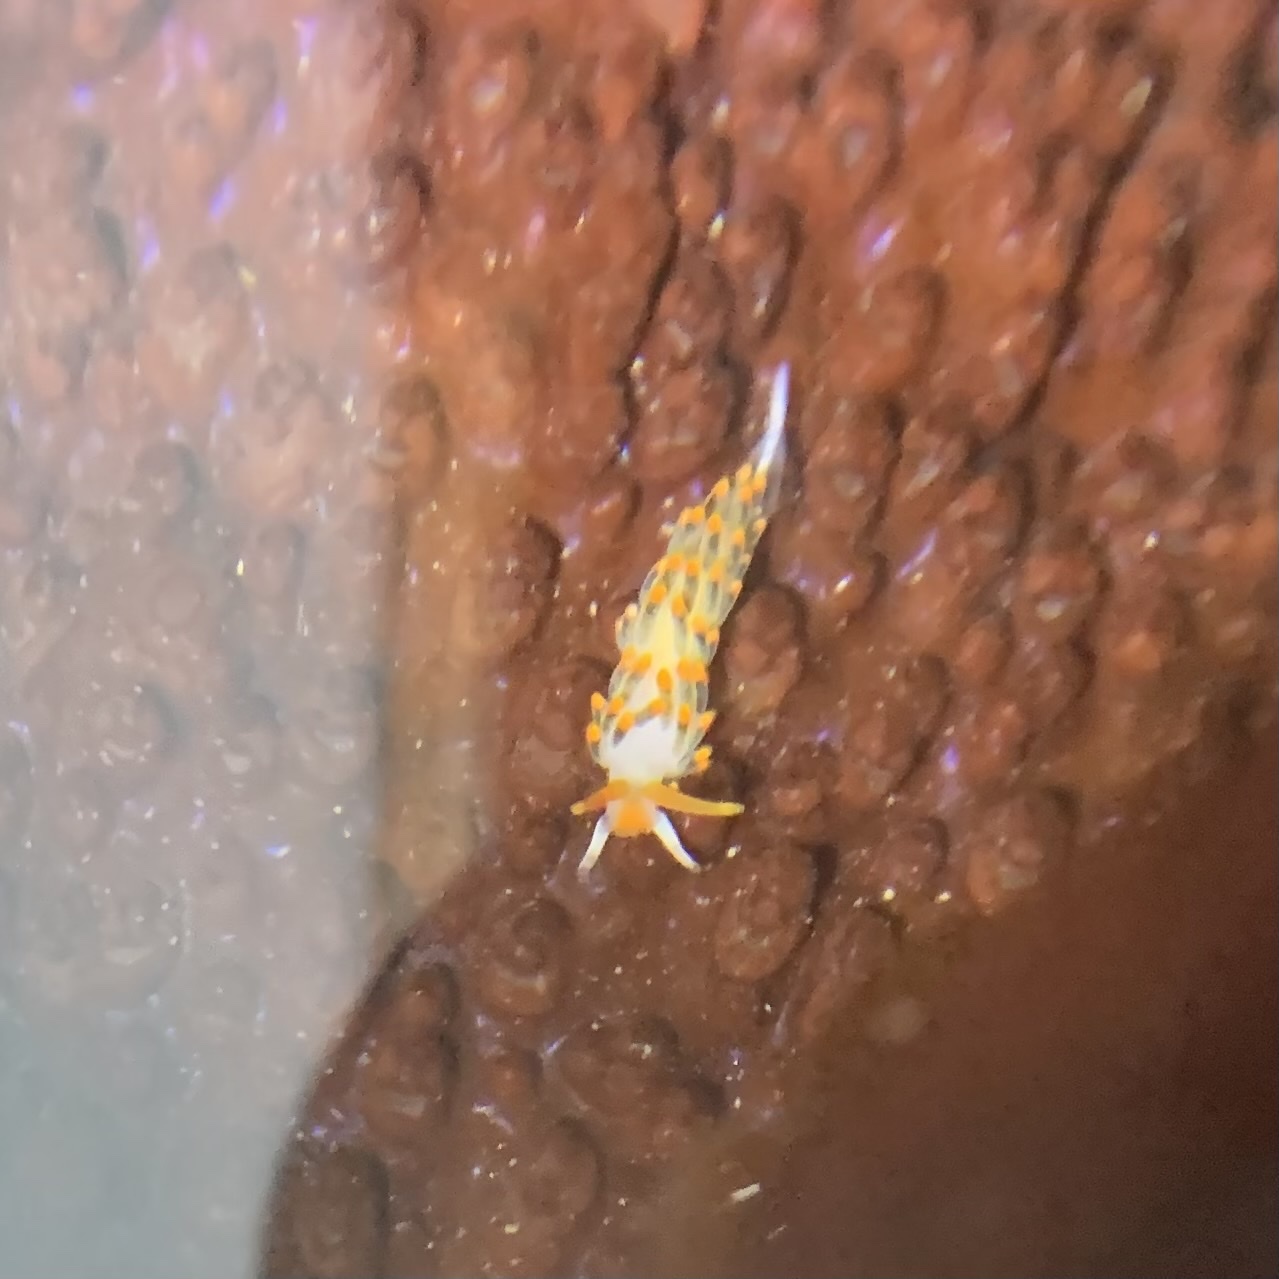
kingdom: Animalia
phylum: Mollusca
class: Gastropoda
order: Nudibranchia
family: Trinchesiidae
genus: Diaphoreolis
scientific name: Diaphoreolis lagunae
